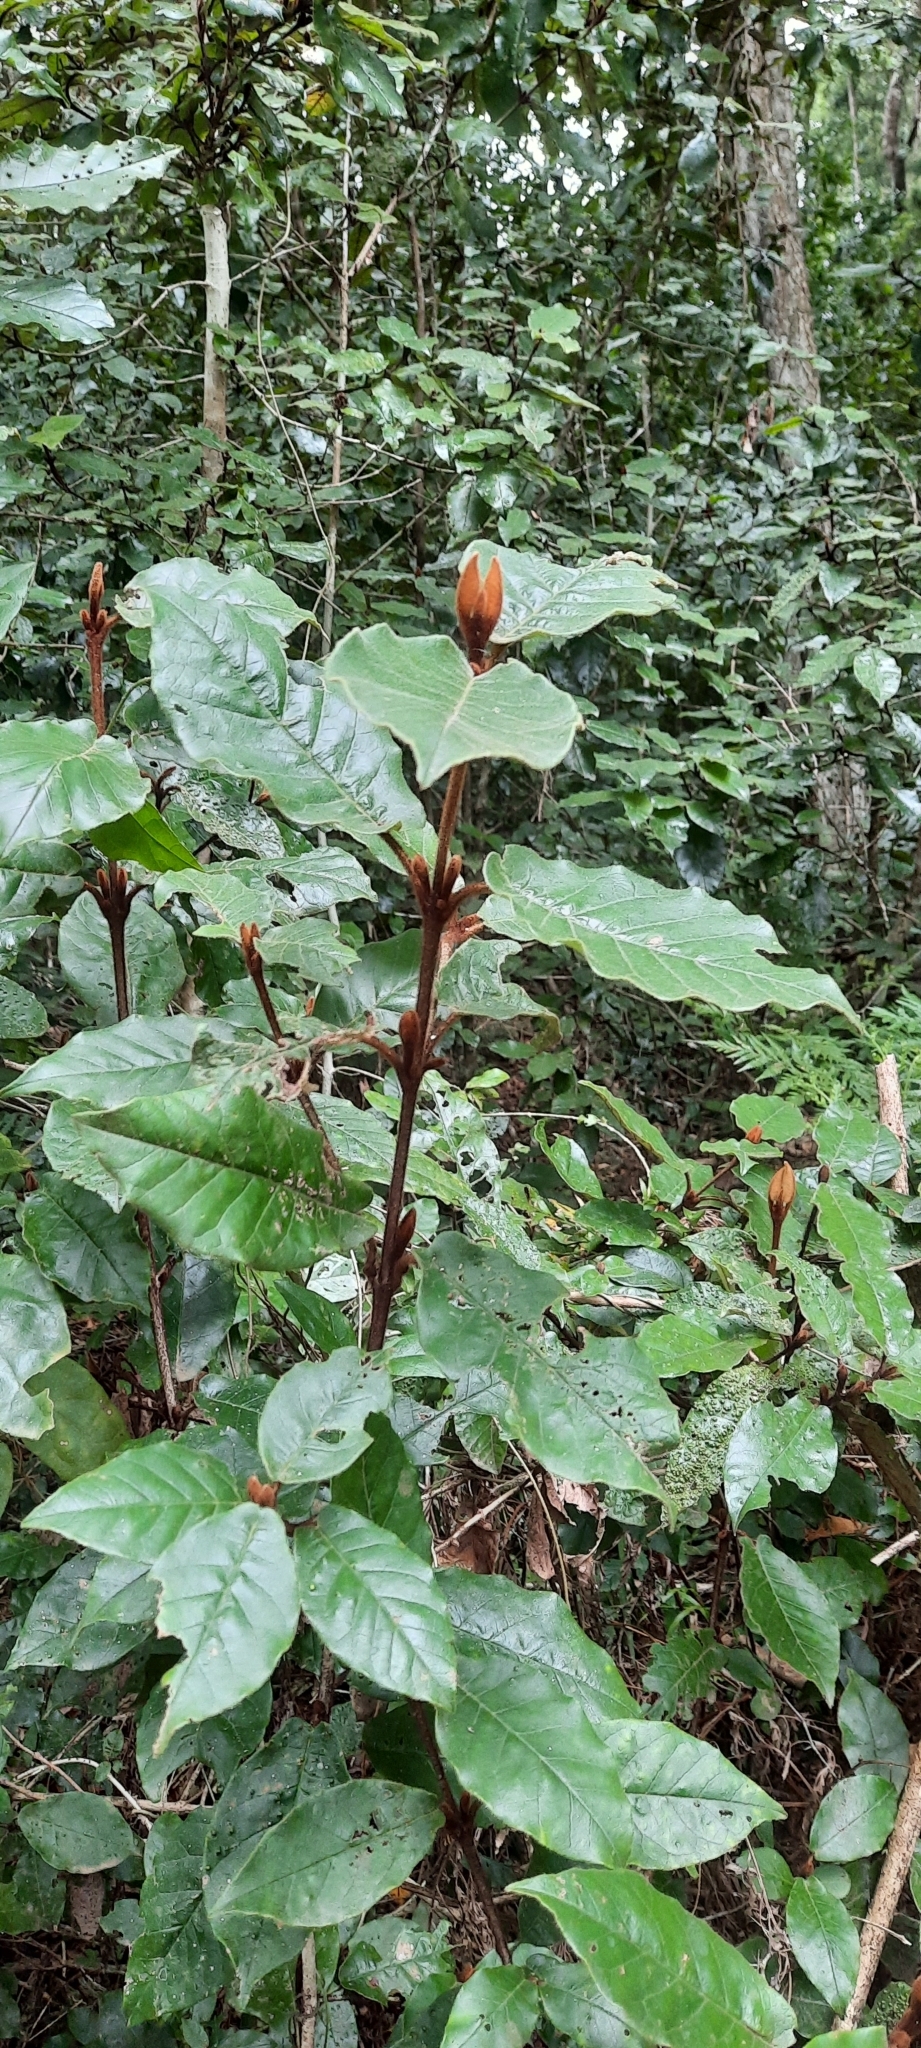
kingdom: Plantae
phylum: Tracheophyta
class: Magnoliopsida
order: Saxifragales
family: Hamamelidaceae
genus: Trichocladus
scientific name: Trichocladus crinitus
